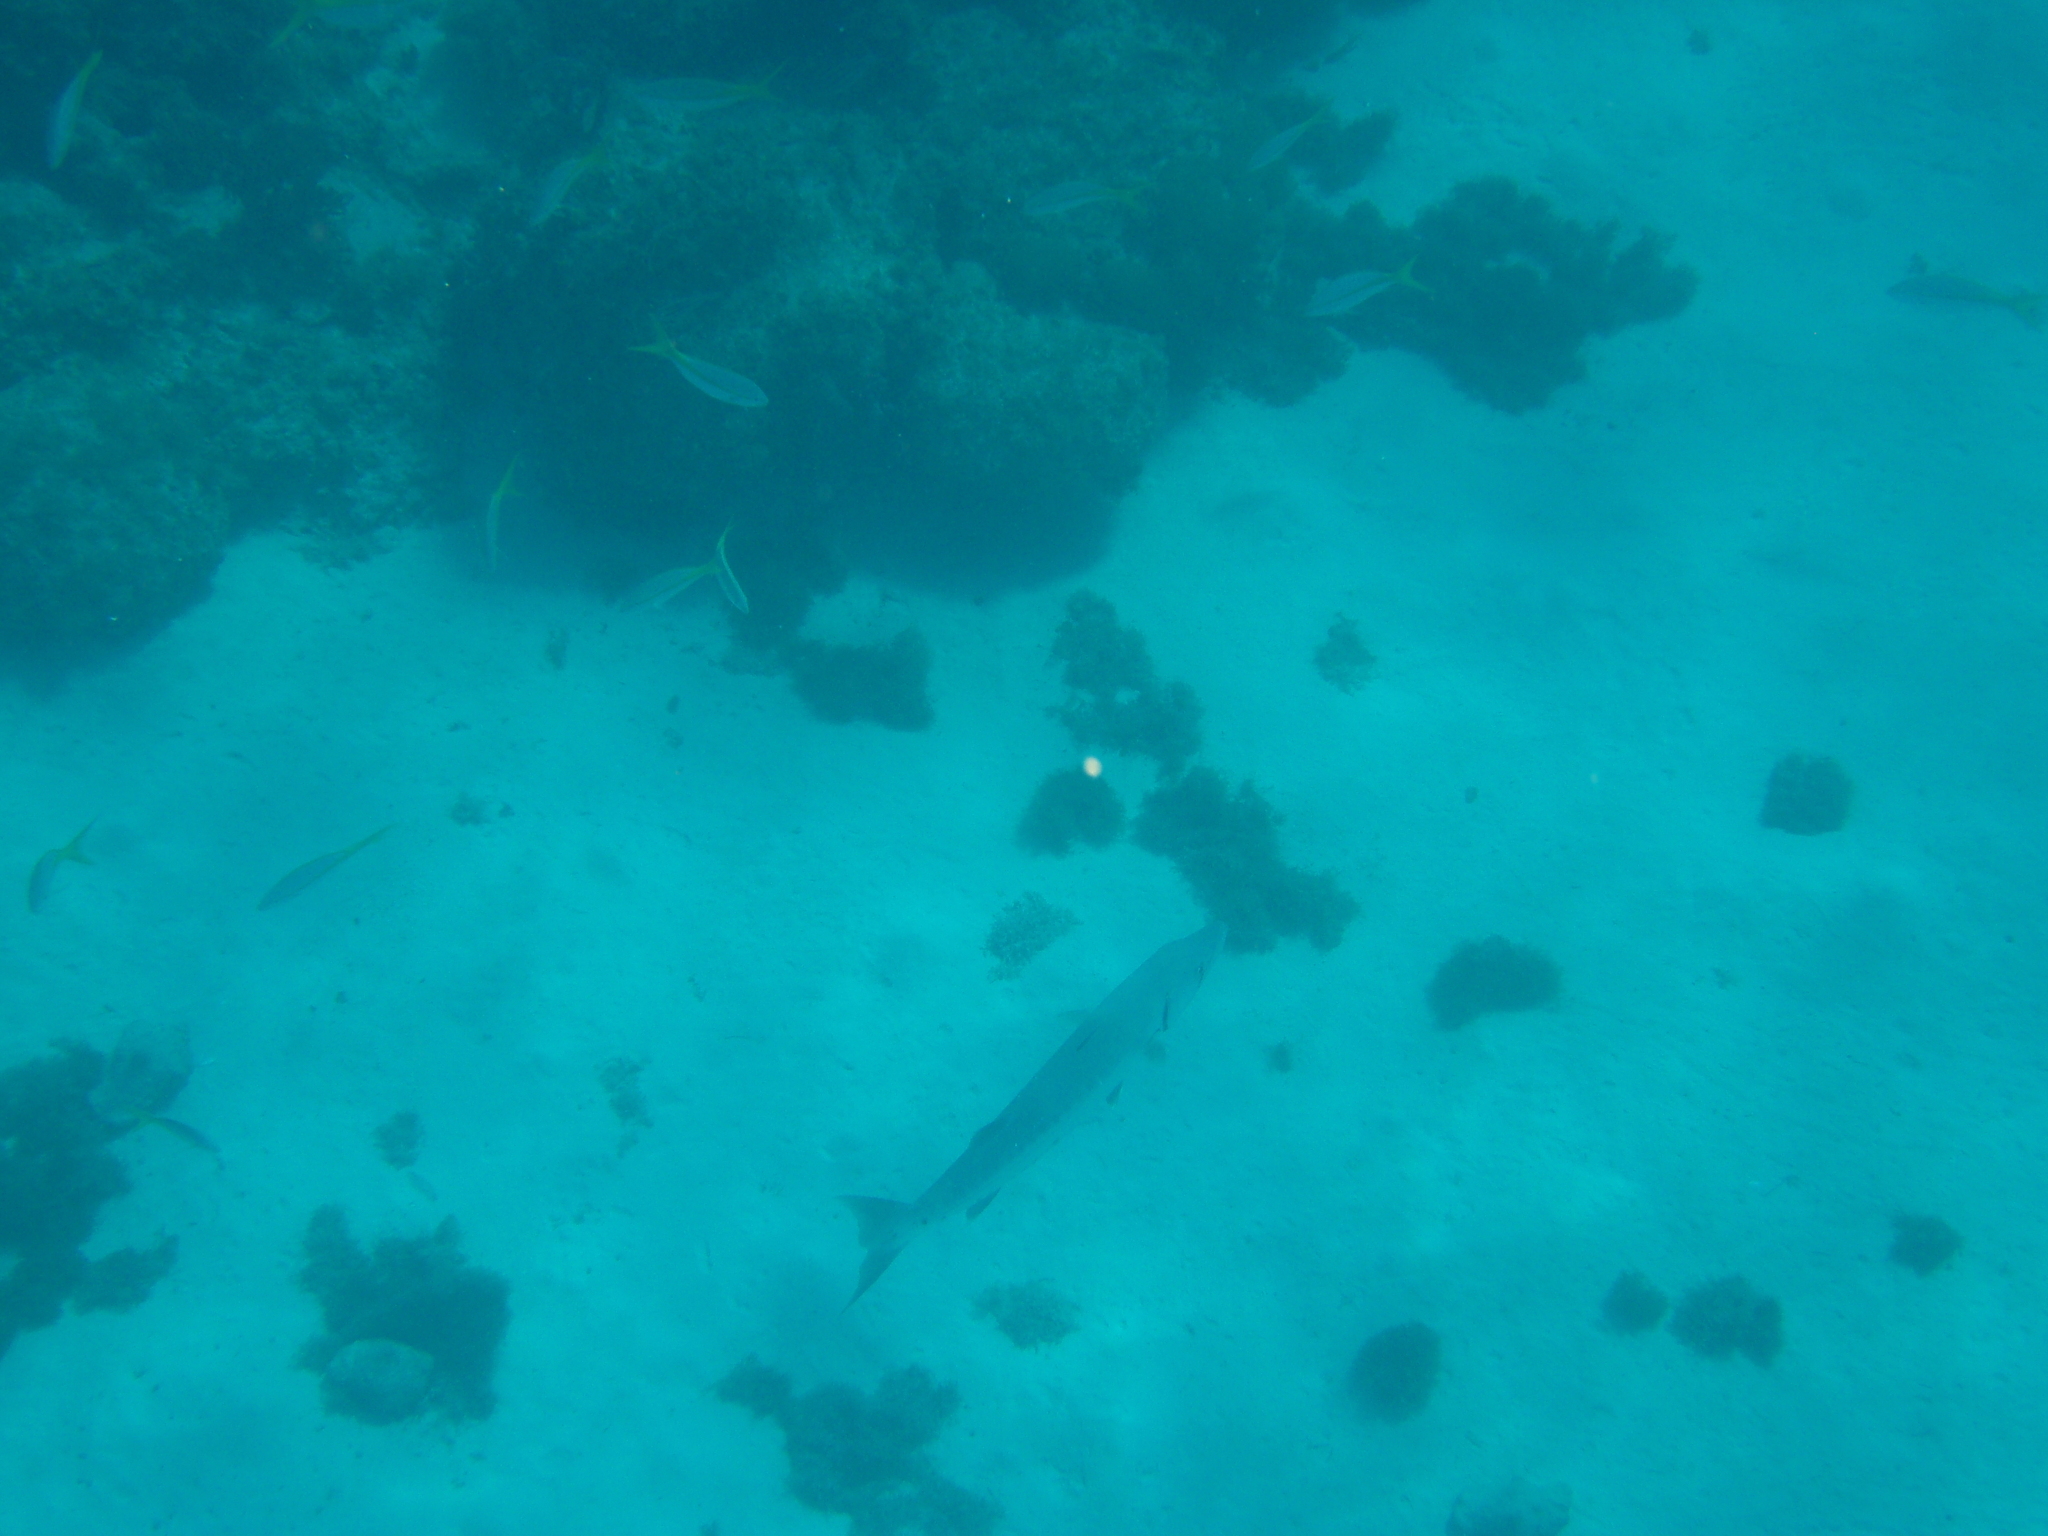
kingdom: Animalia
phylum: Chordata
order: Perciformes
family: Lutjanidae
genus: Ocyurus
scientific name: Ocyurus chrysurus
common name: Yellowtail snapper
